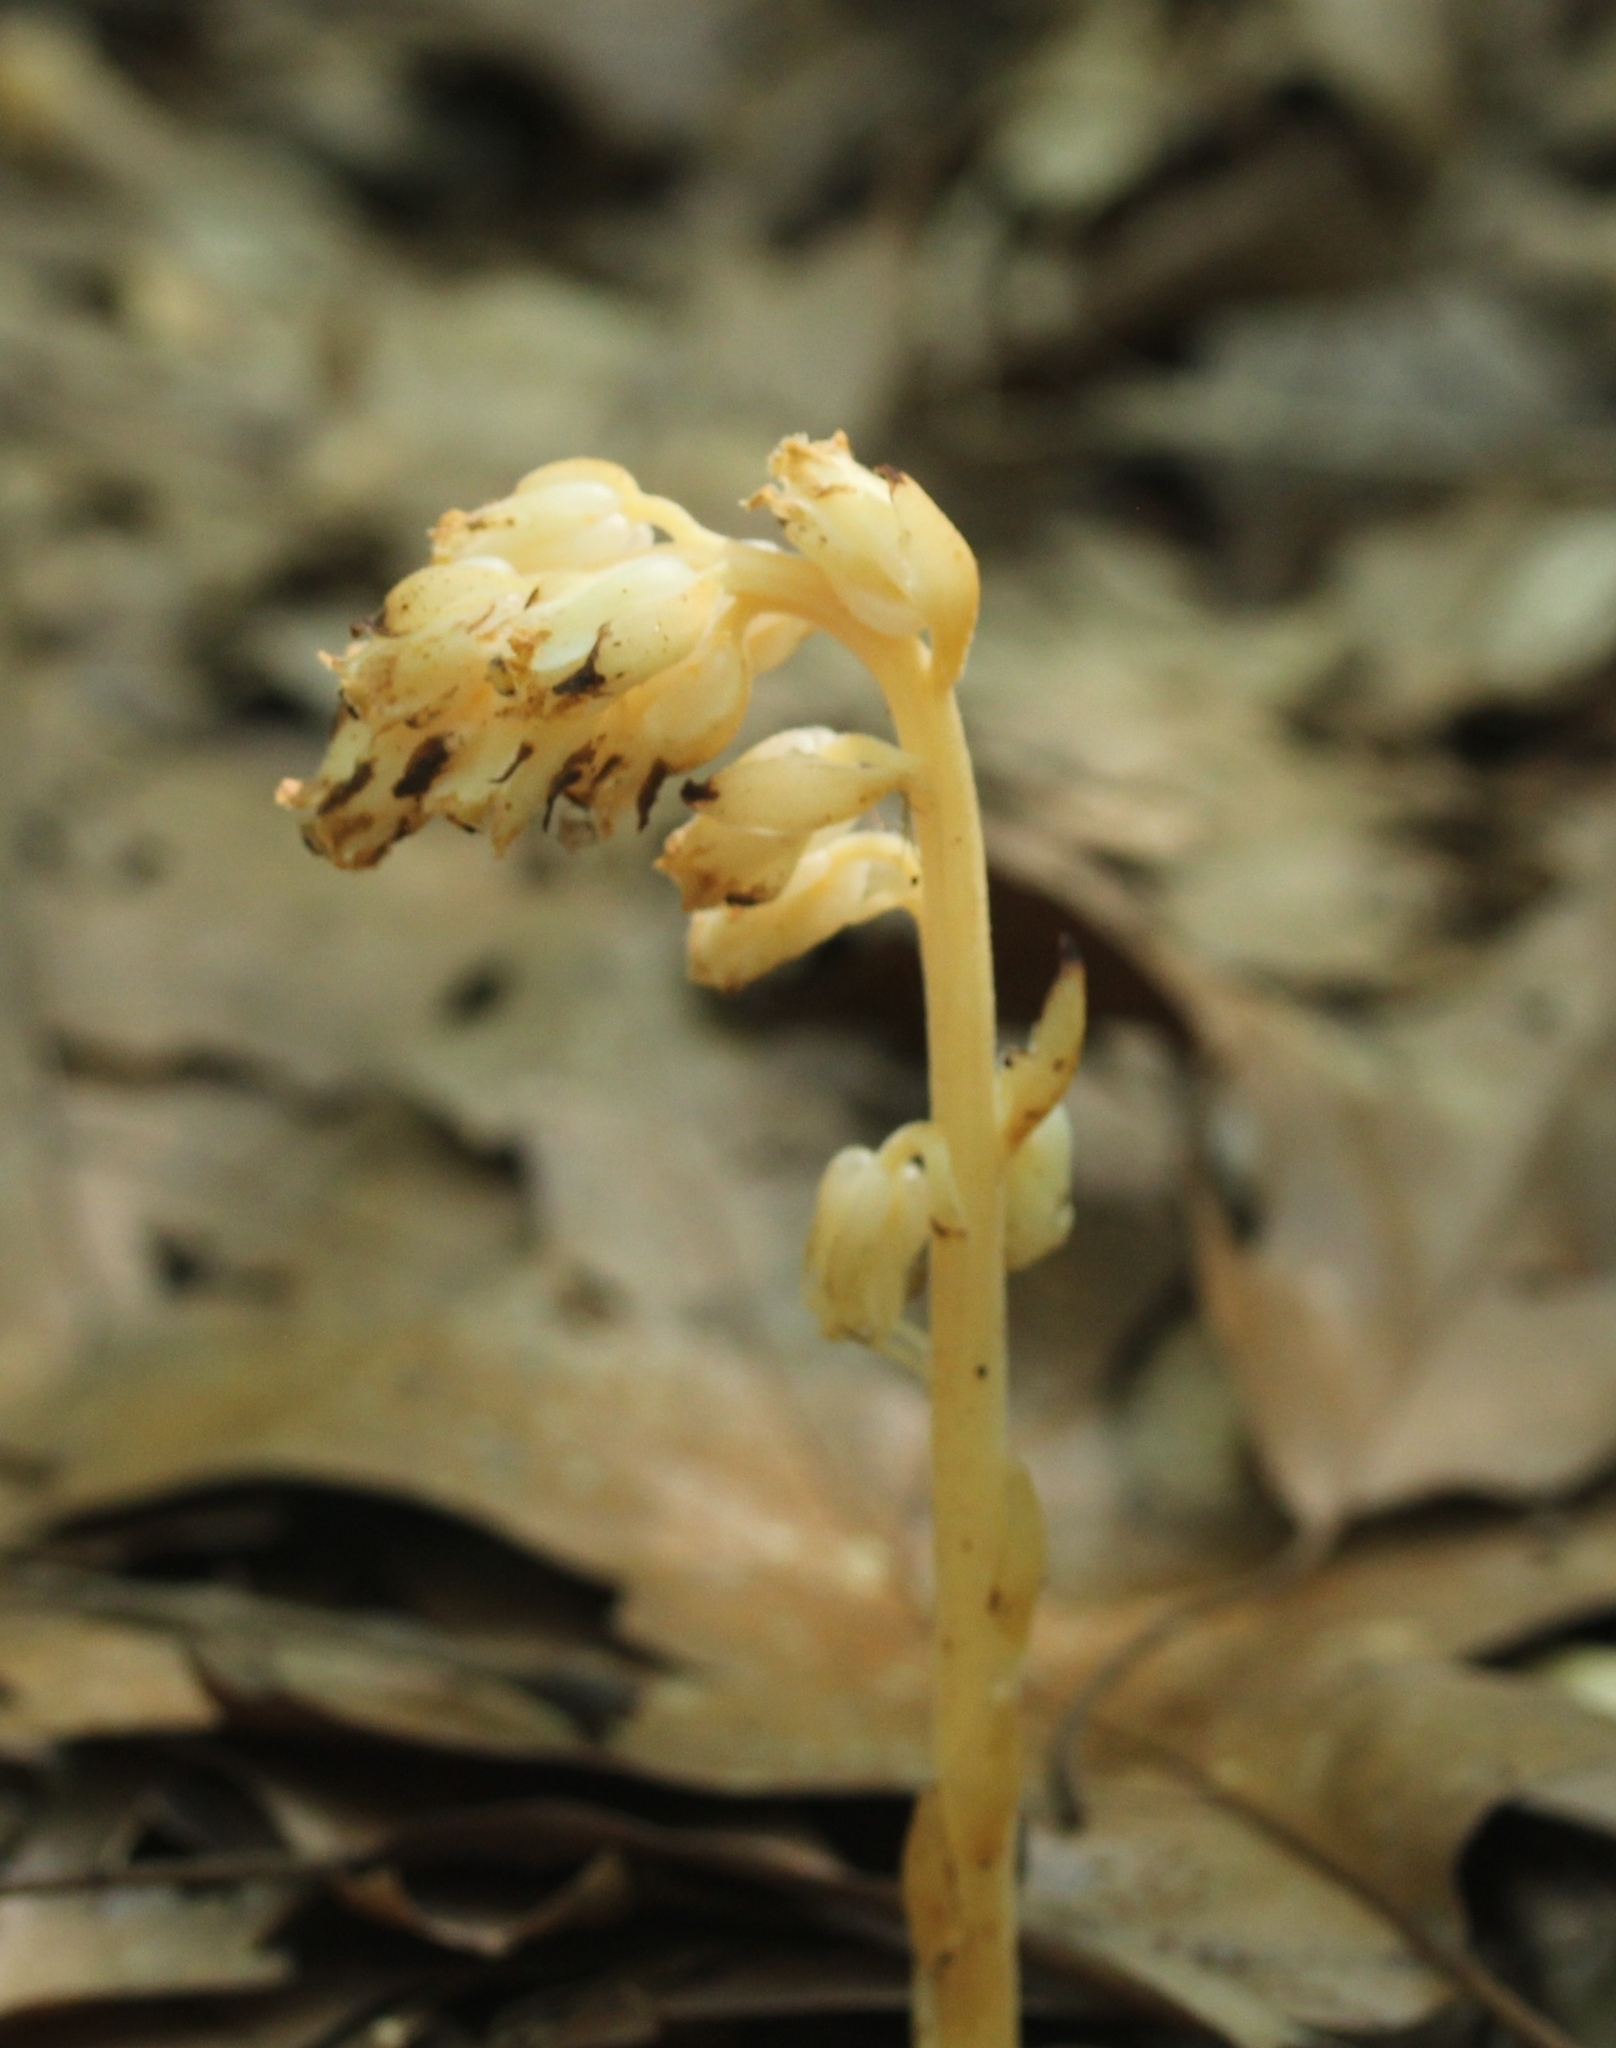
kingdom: Plantae
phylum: Tracheophyta
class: Magnoliopsida
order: Ericales
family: Ericaceae
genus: Hypopitys
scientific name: Hypopitys monotropa
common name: Yellow bird's-nest
